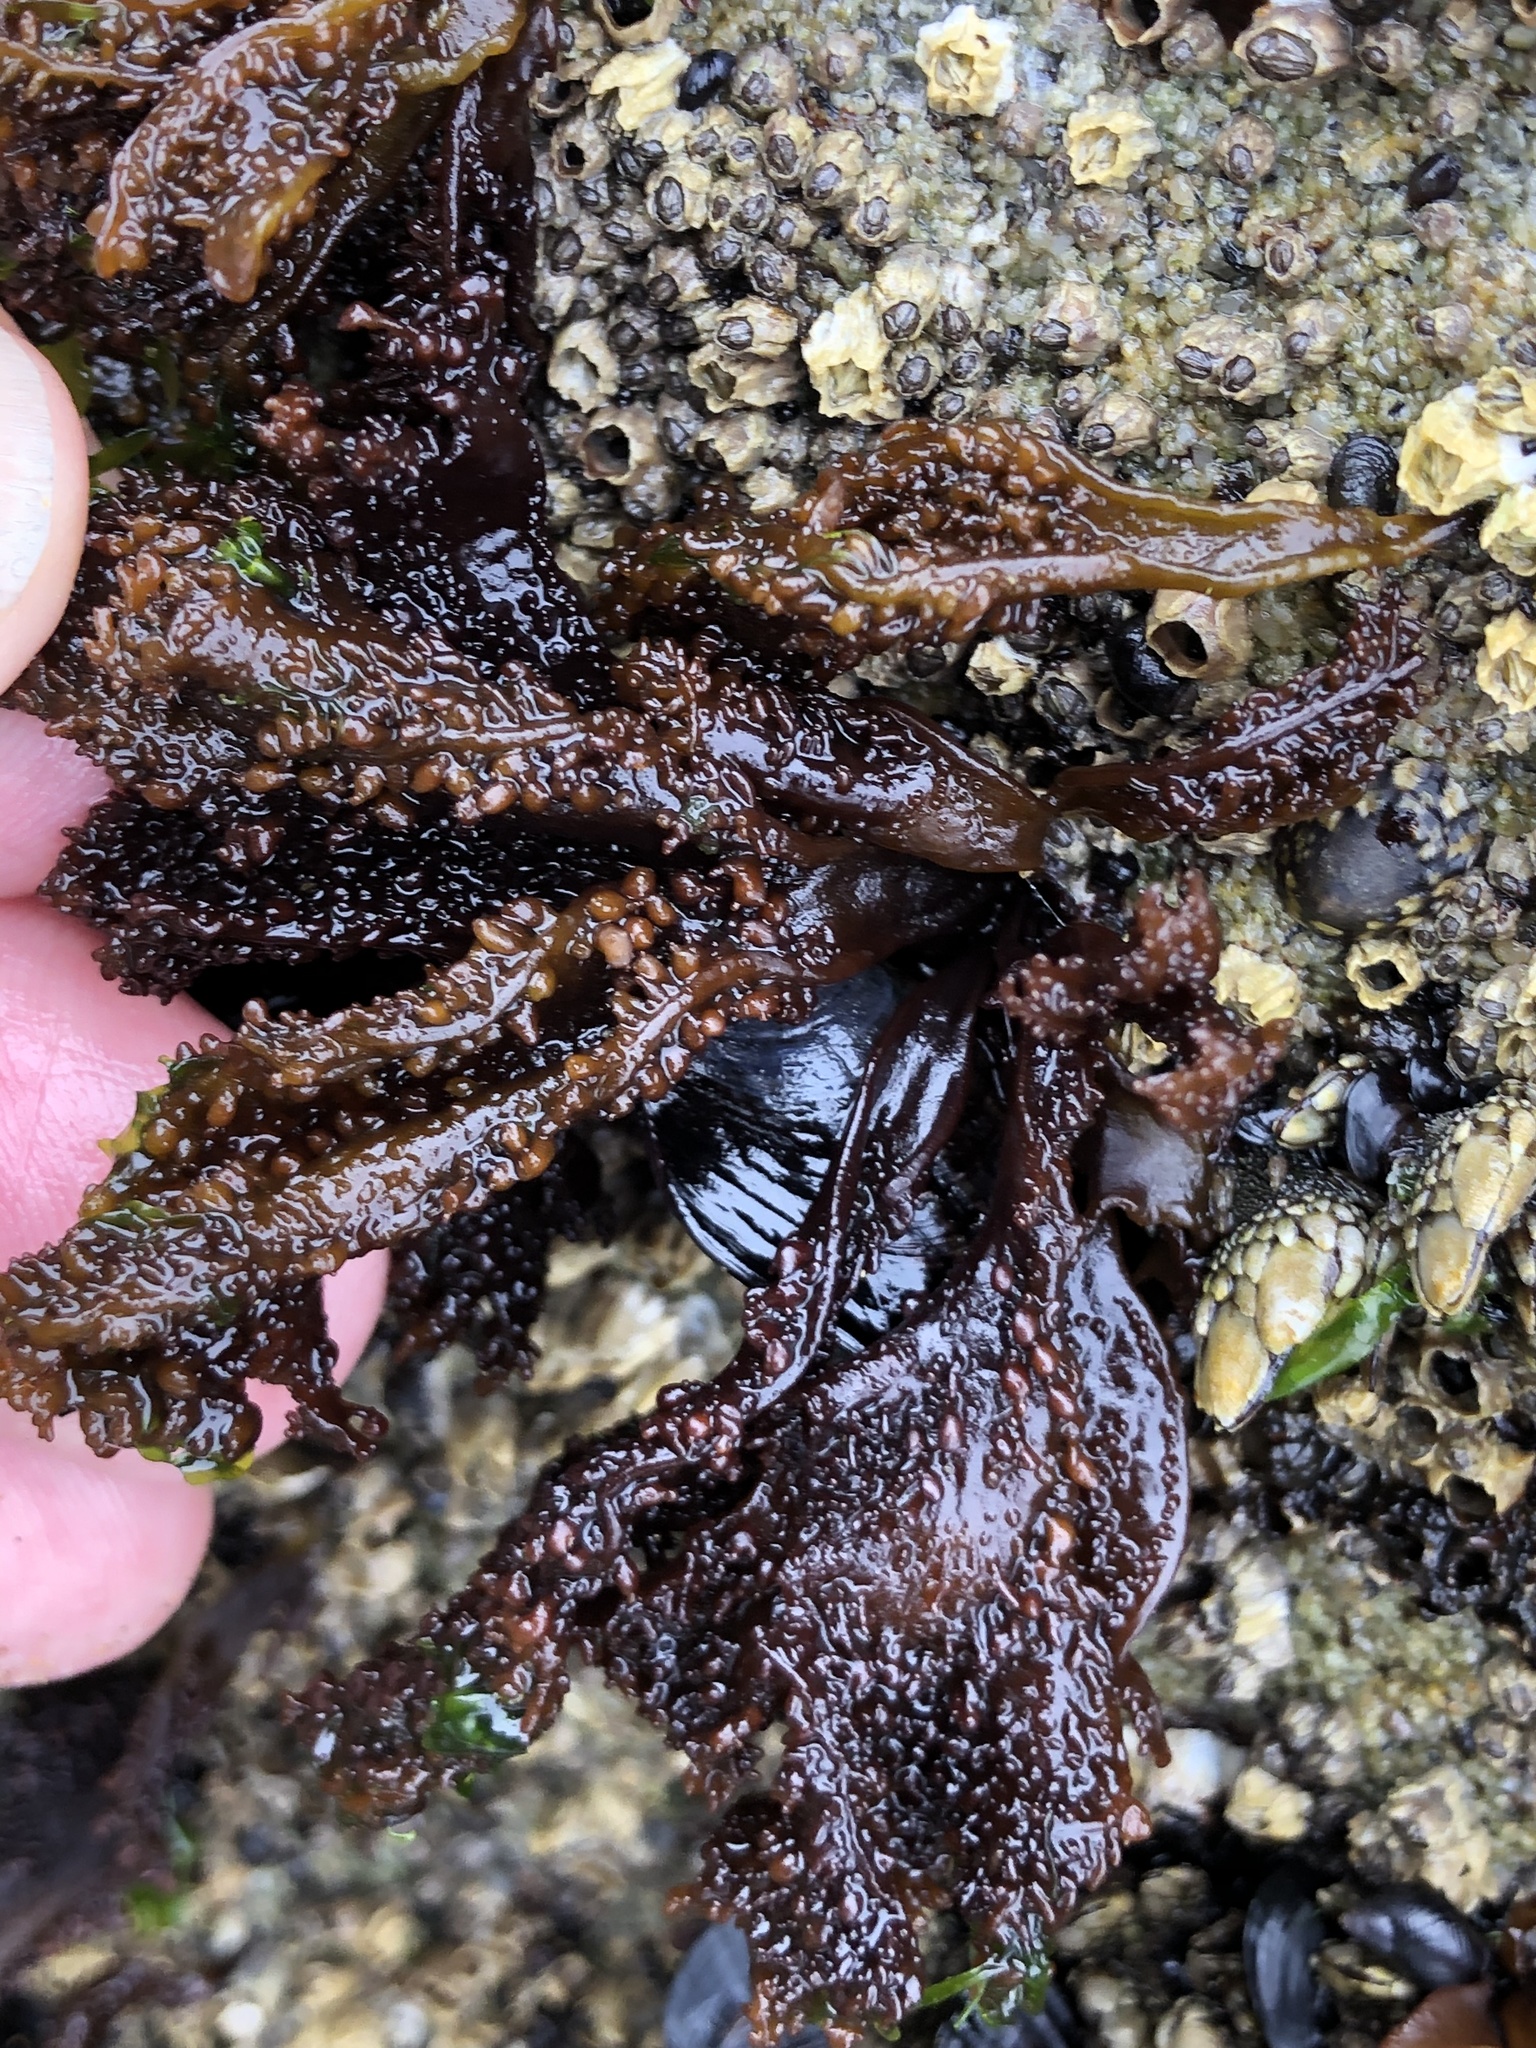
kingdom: Plantae
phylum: Rhodophyta
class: Florideophyceae
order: Gigartinales
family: Phyllophoraceae
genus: Mastocarpus
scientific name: Mastocarpus papillatus
